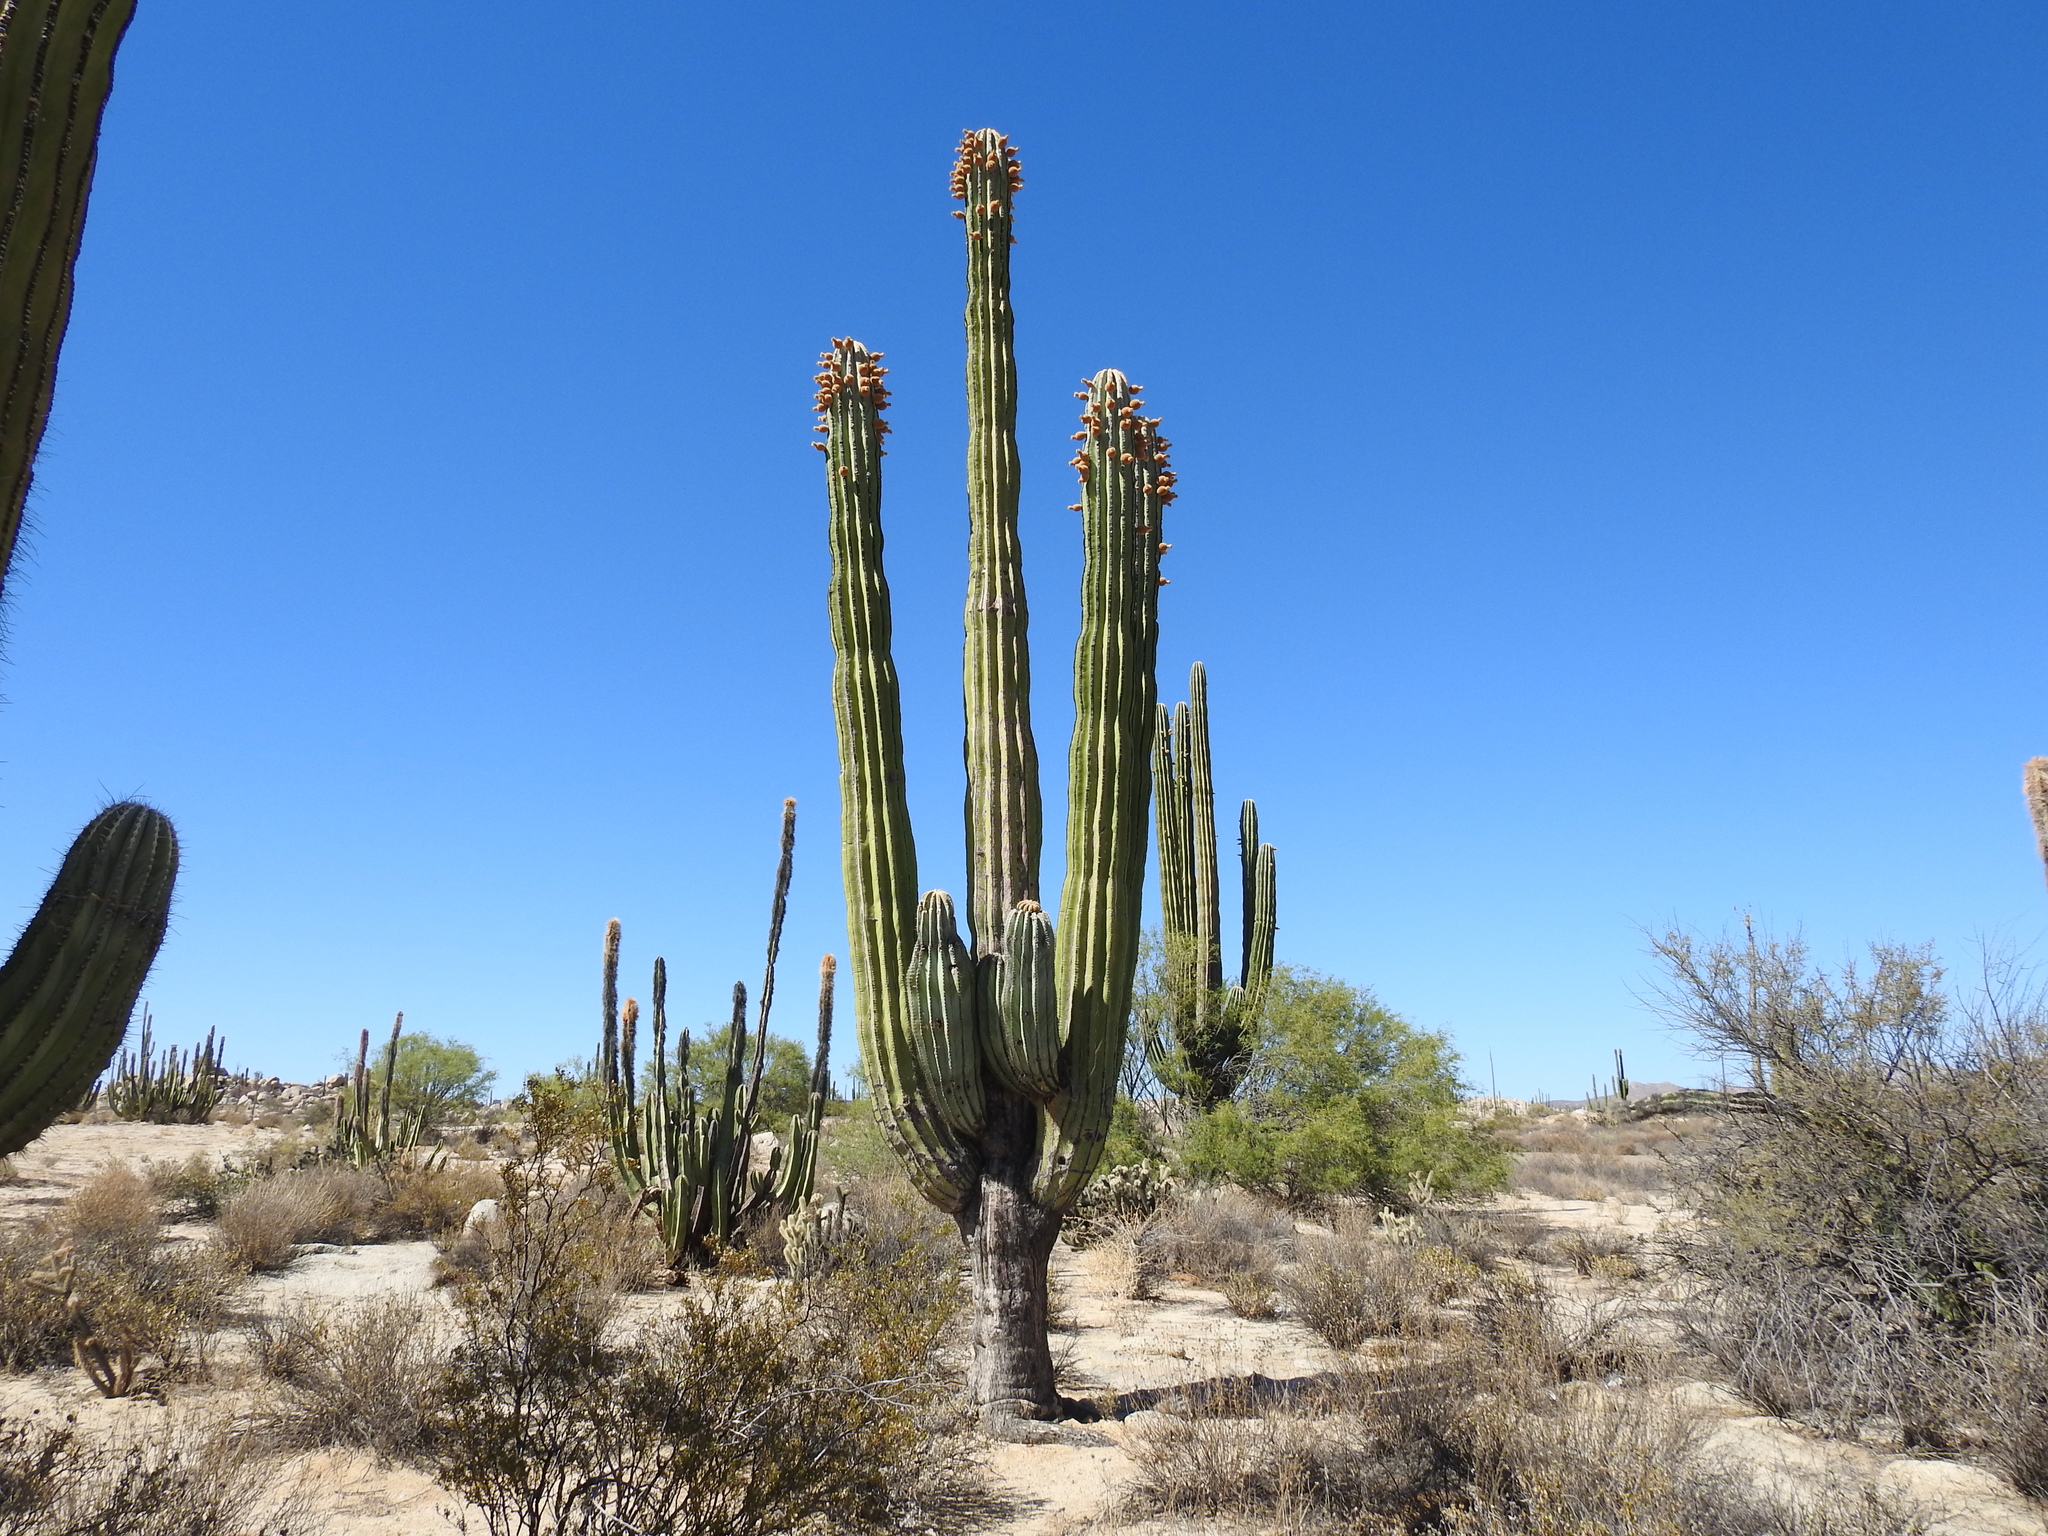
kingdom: Plantae
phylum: Tracheophyta
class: Magnoliopsida
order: Caryophyllales
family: Cactaceae
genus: Pachycereus
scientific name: Pachycereus pringlei
